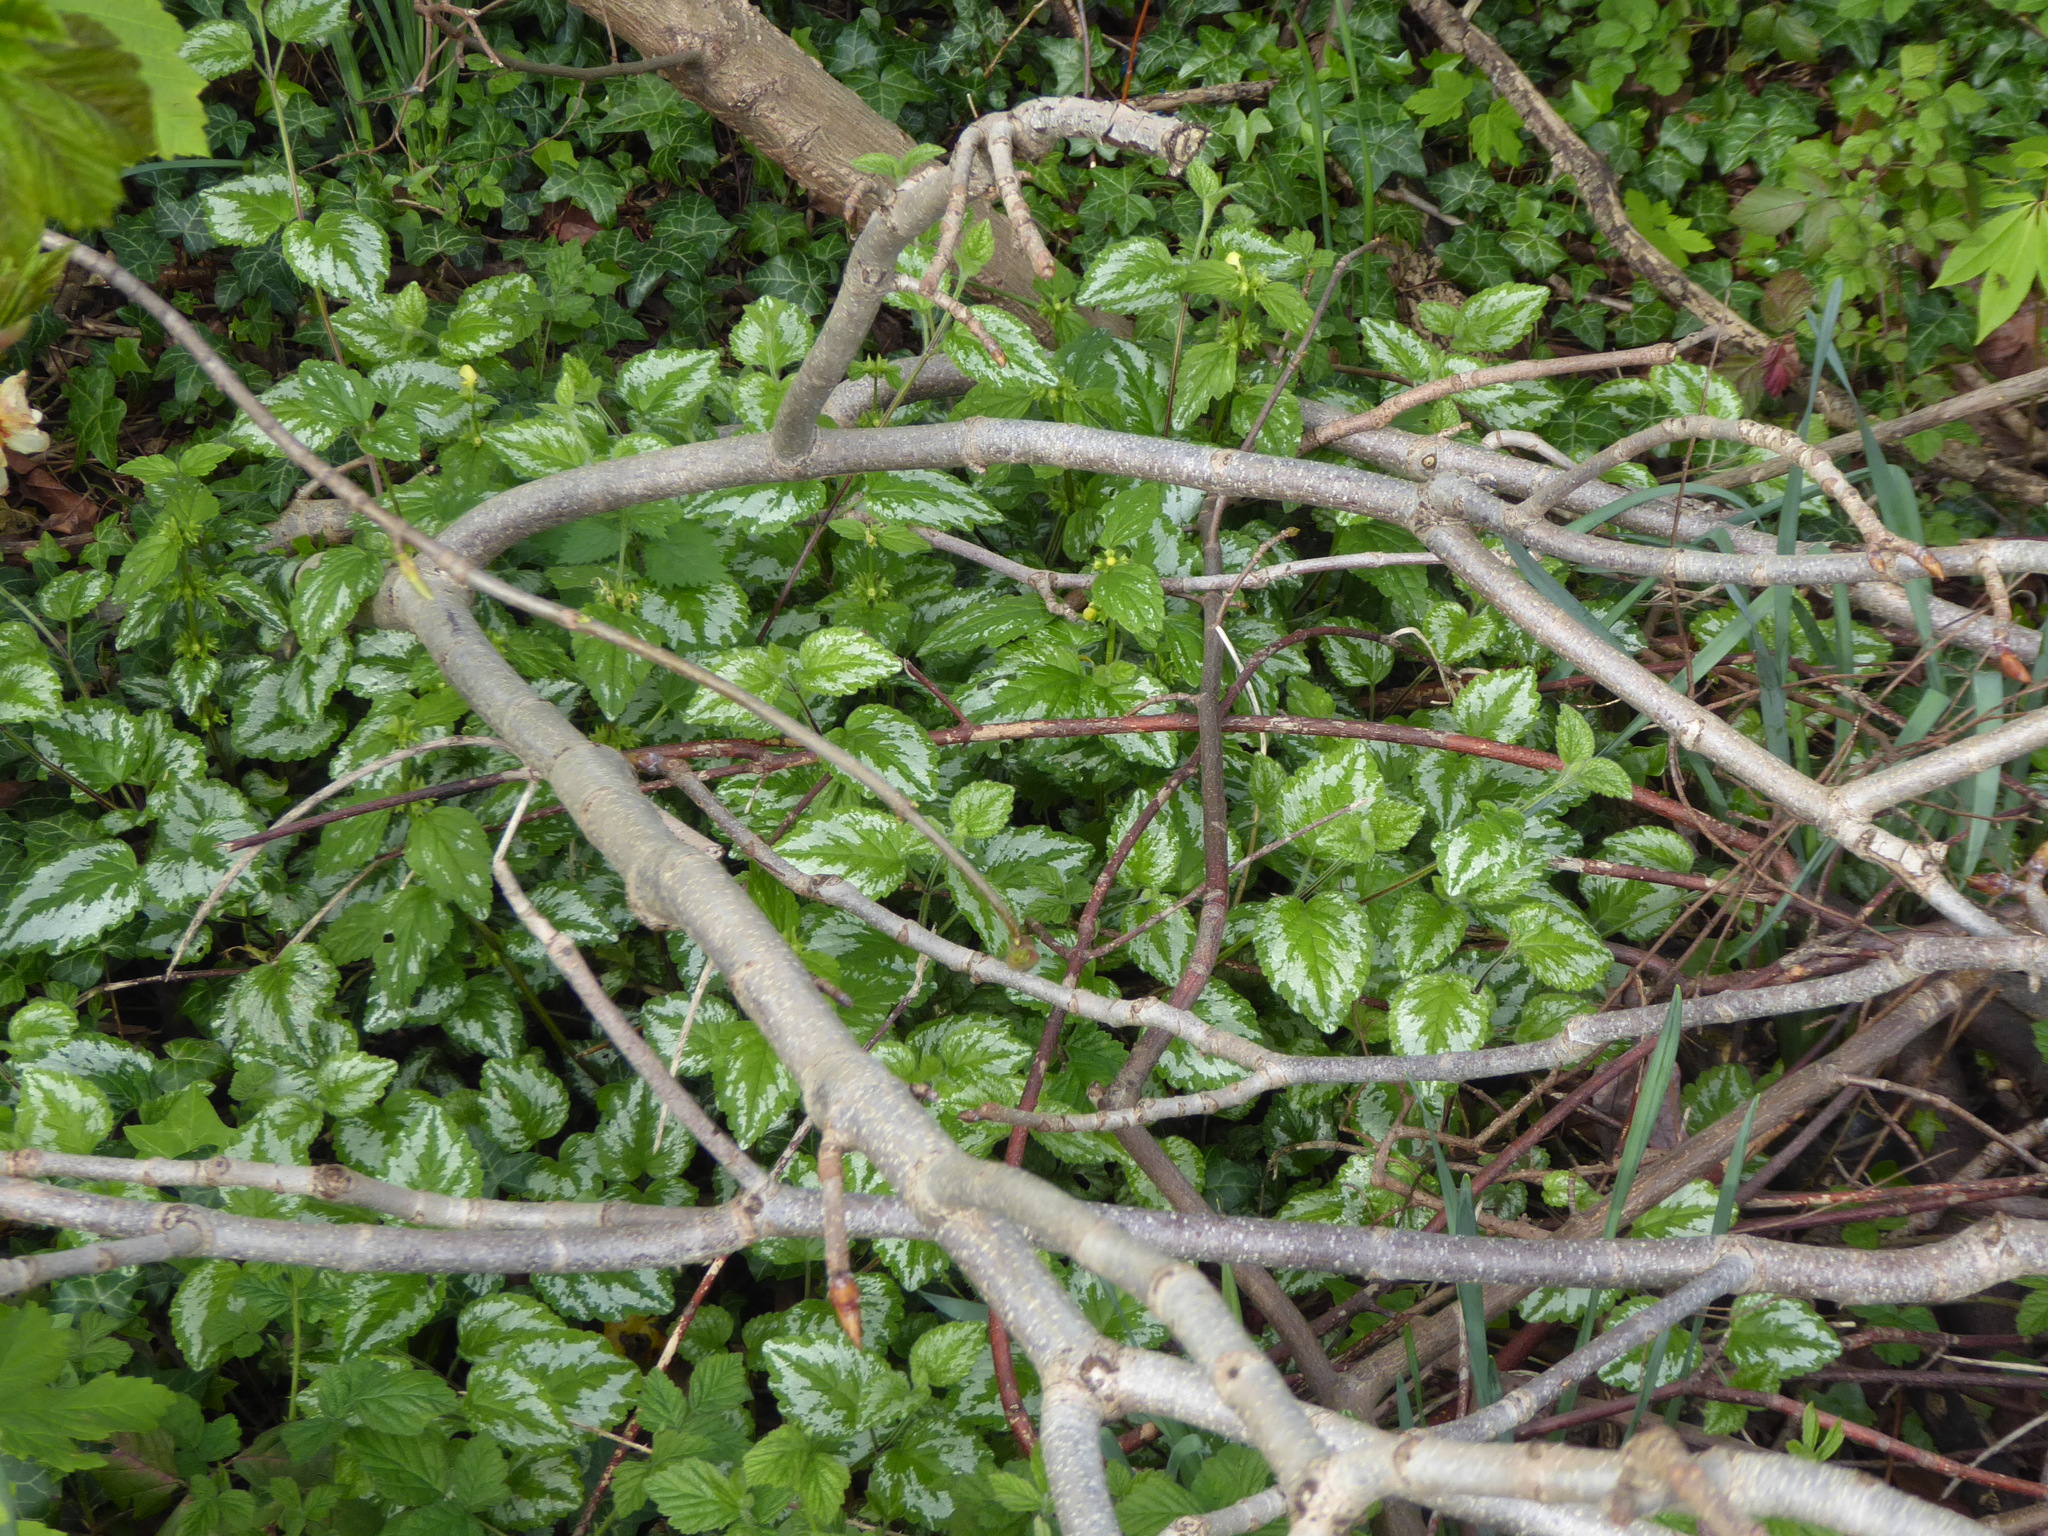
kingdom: Plantae
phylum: Tracheophyta
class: Magnoliopsida
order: Lamiales
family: Lamiaceae
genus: Lamium
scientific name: Lamium galeobdolon
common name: Yellow archangel
